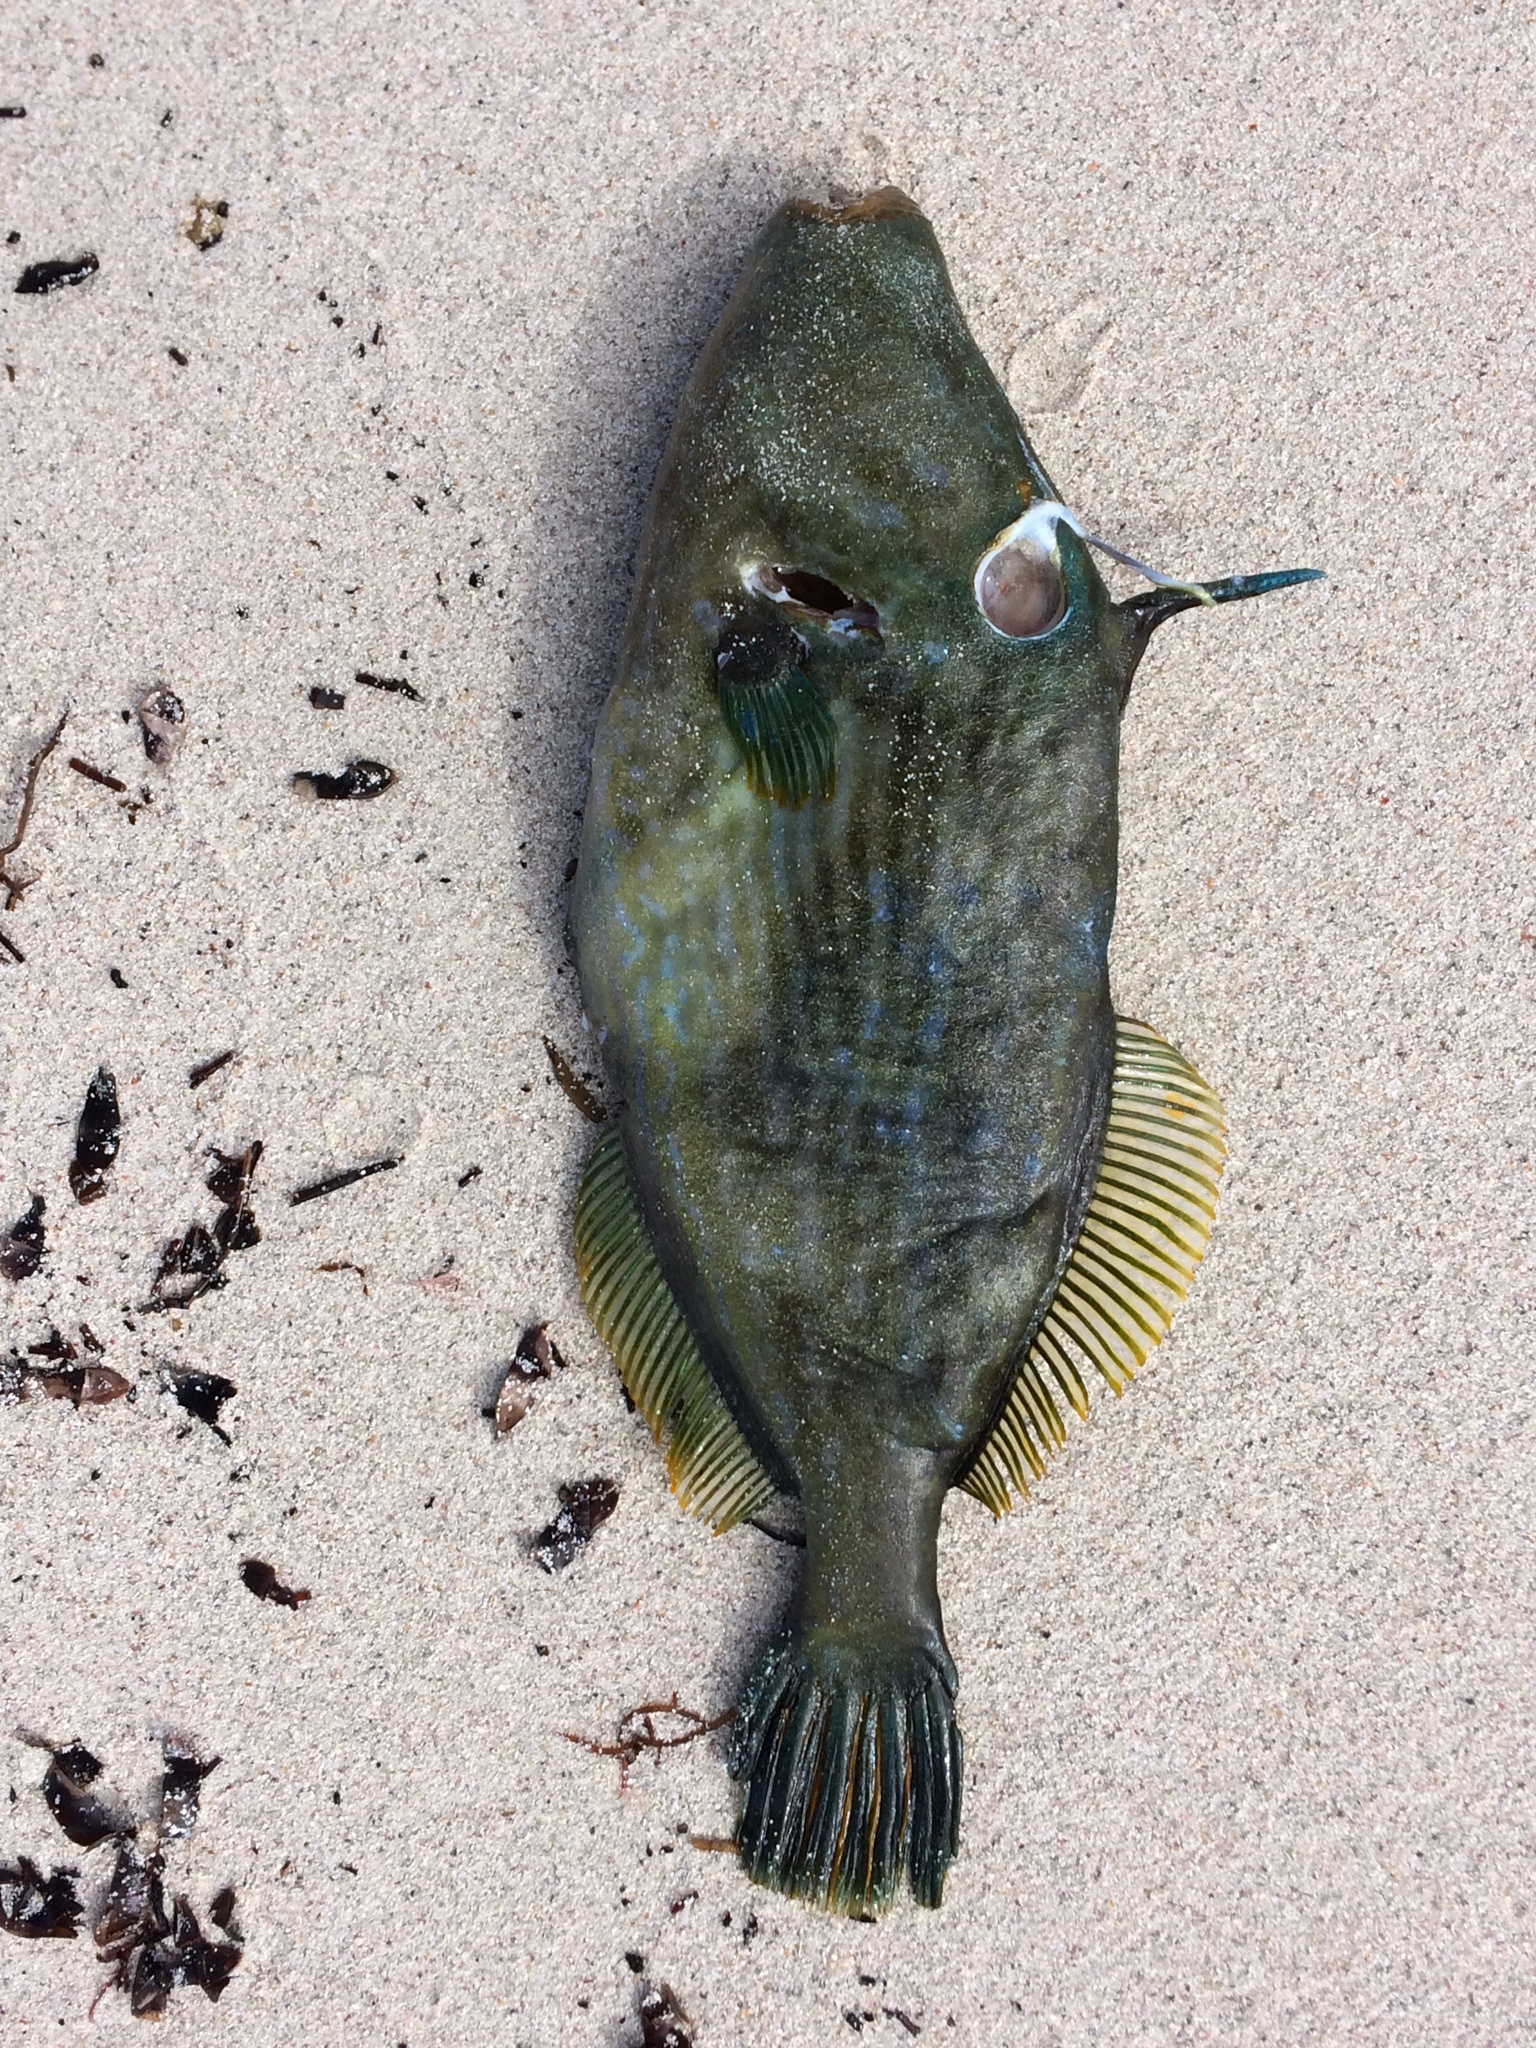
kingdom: Animalia
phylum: Chordata
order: Tetraodontiformes
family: Monacanthidae
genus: Meuschenia
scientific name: Meuschenia galii
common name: Bluelined leatherjacket
